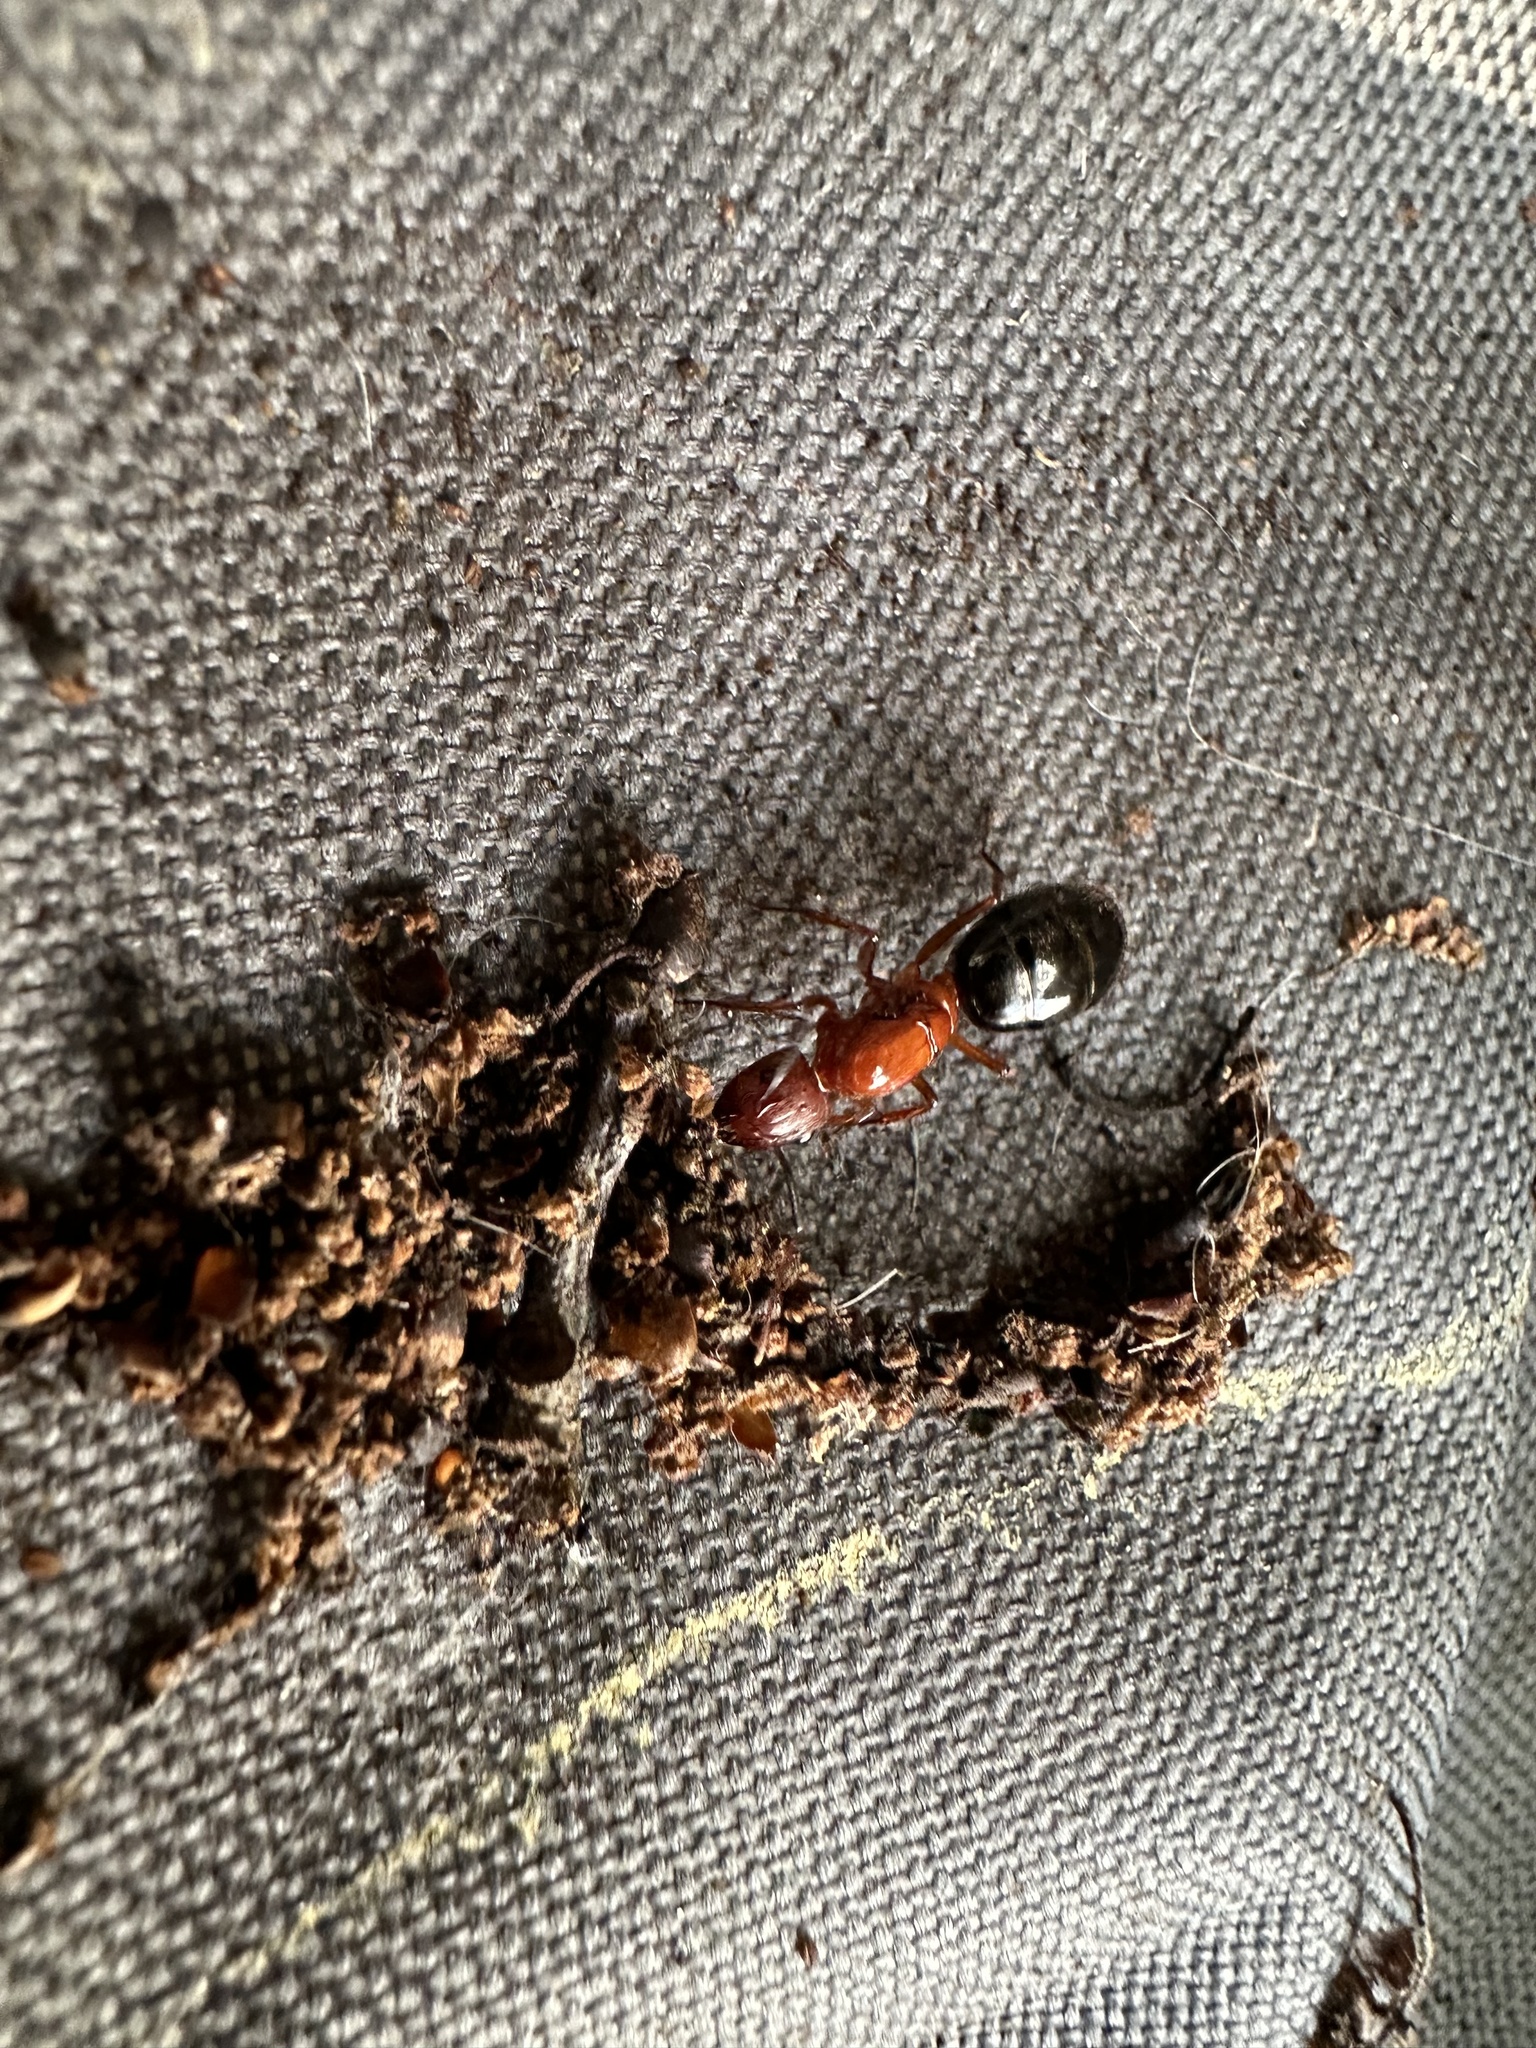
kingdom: Animalia
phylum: Arthropoda
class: Insecta
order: Hymenoptera
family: Formicidae
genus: Camponotus
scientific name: Camponotus floridanus
